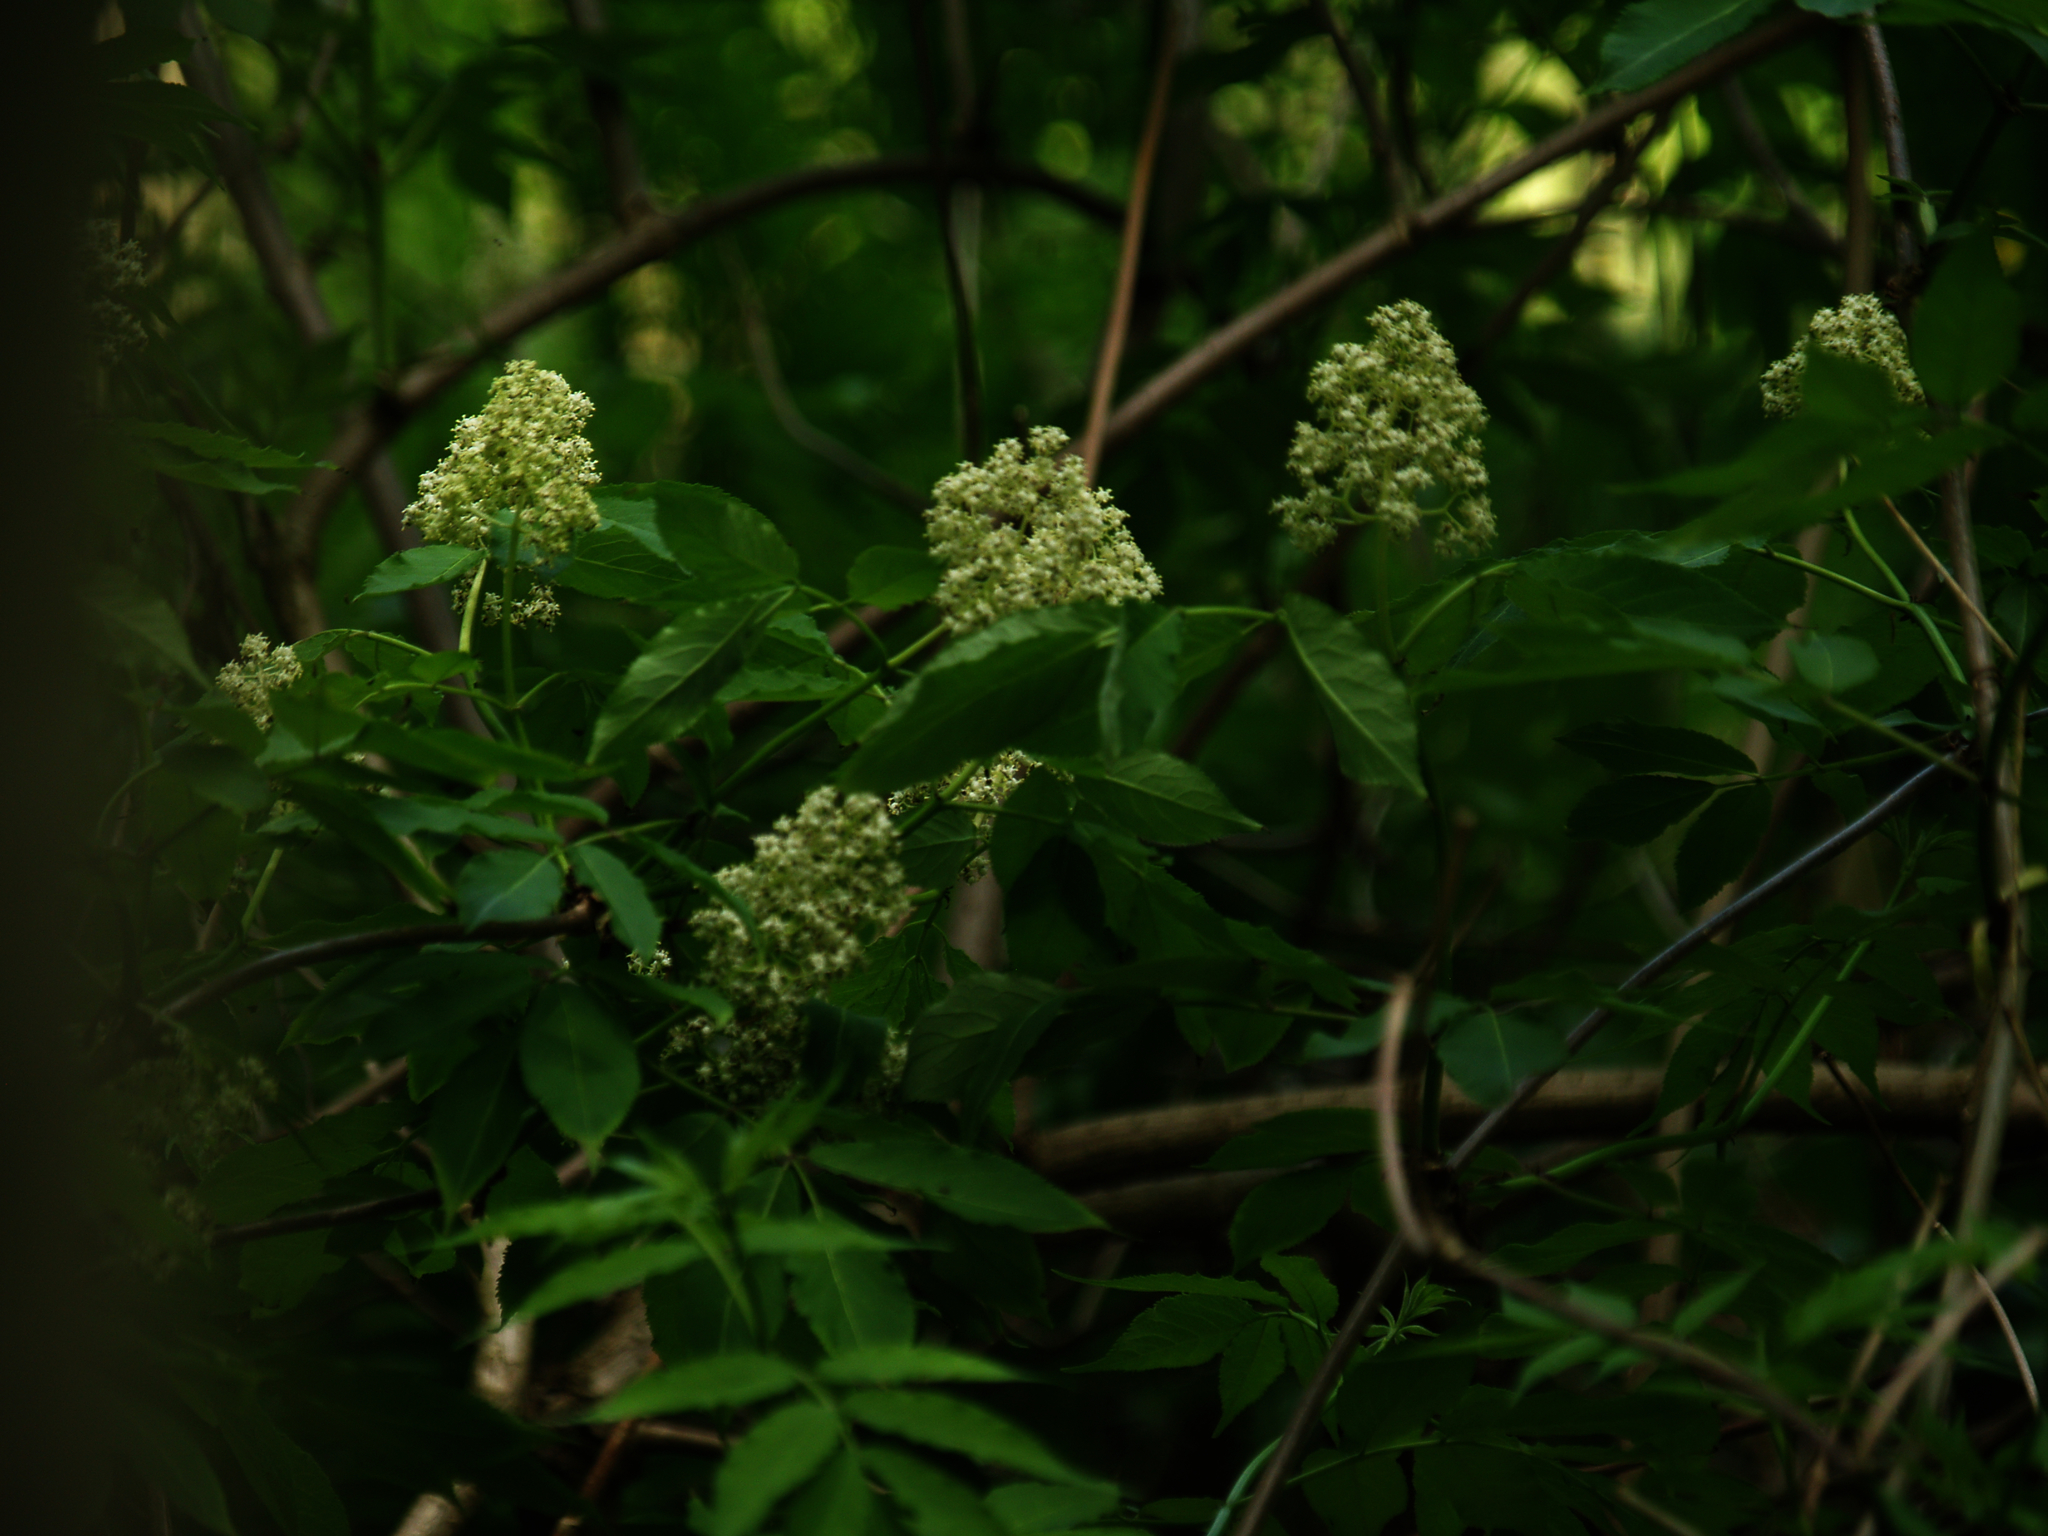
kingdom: Plantae
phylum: Tracheophyta
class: Magnoliopsida
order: Dipsacales
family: Viburnaceae
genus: Sambucus
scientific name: Sambucus racemosa
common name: Red-berried elder
